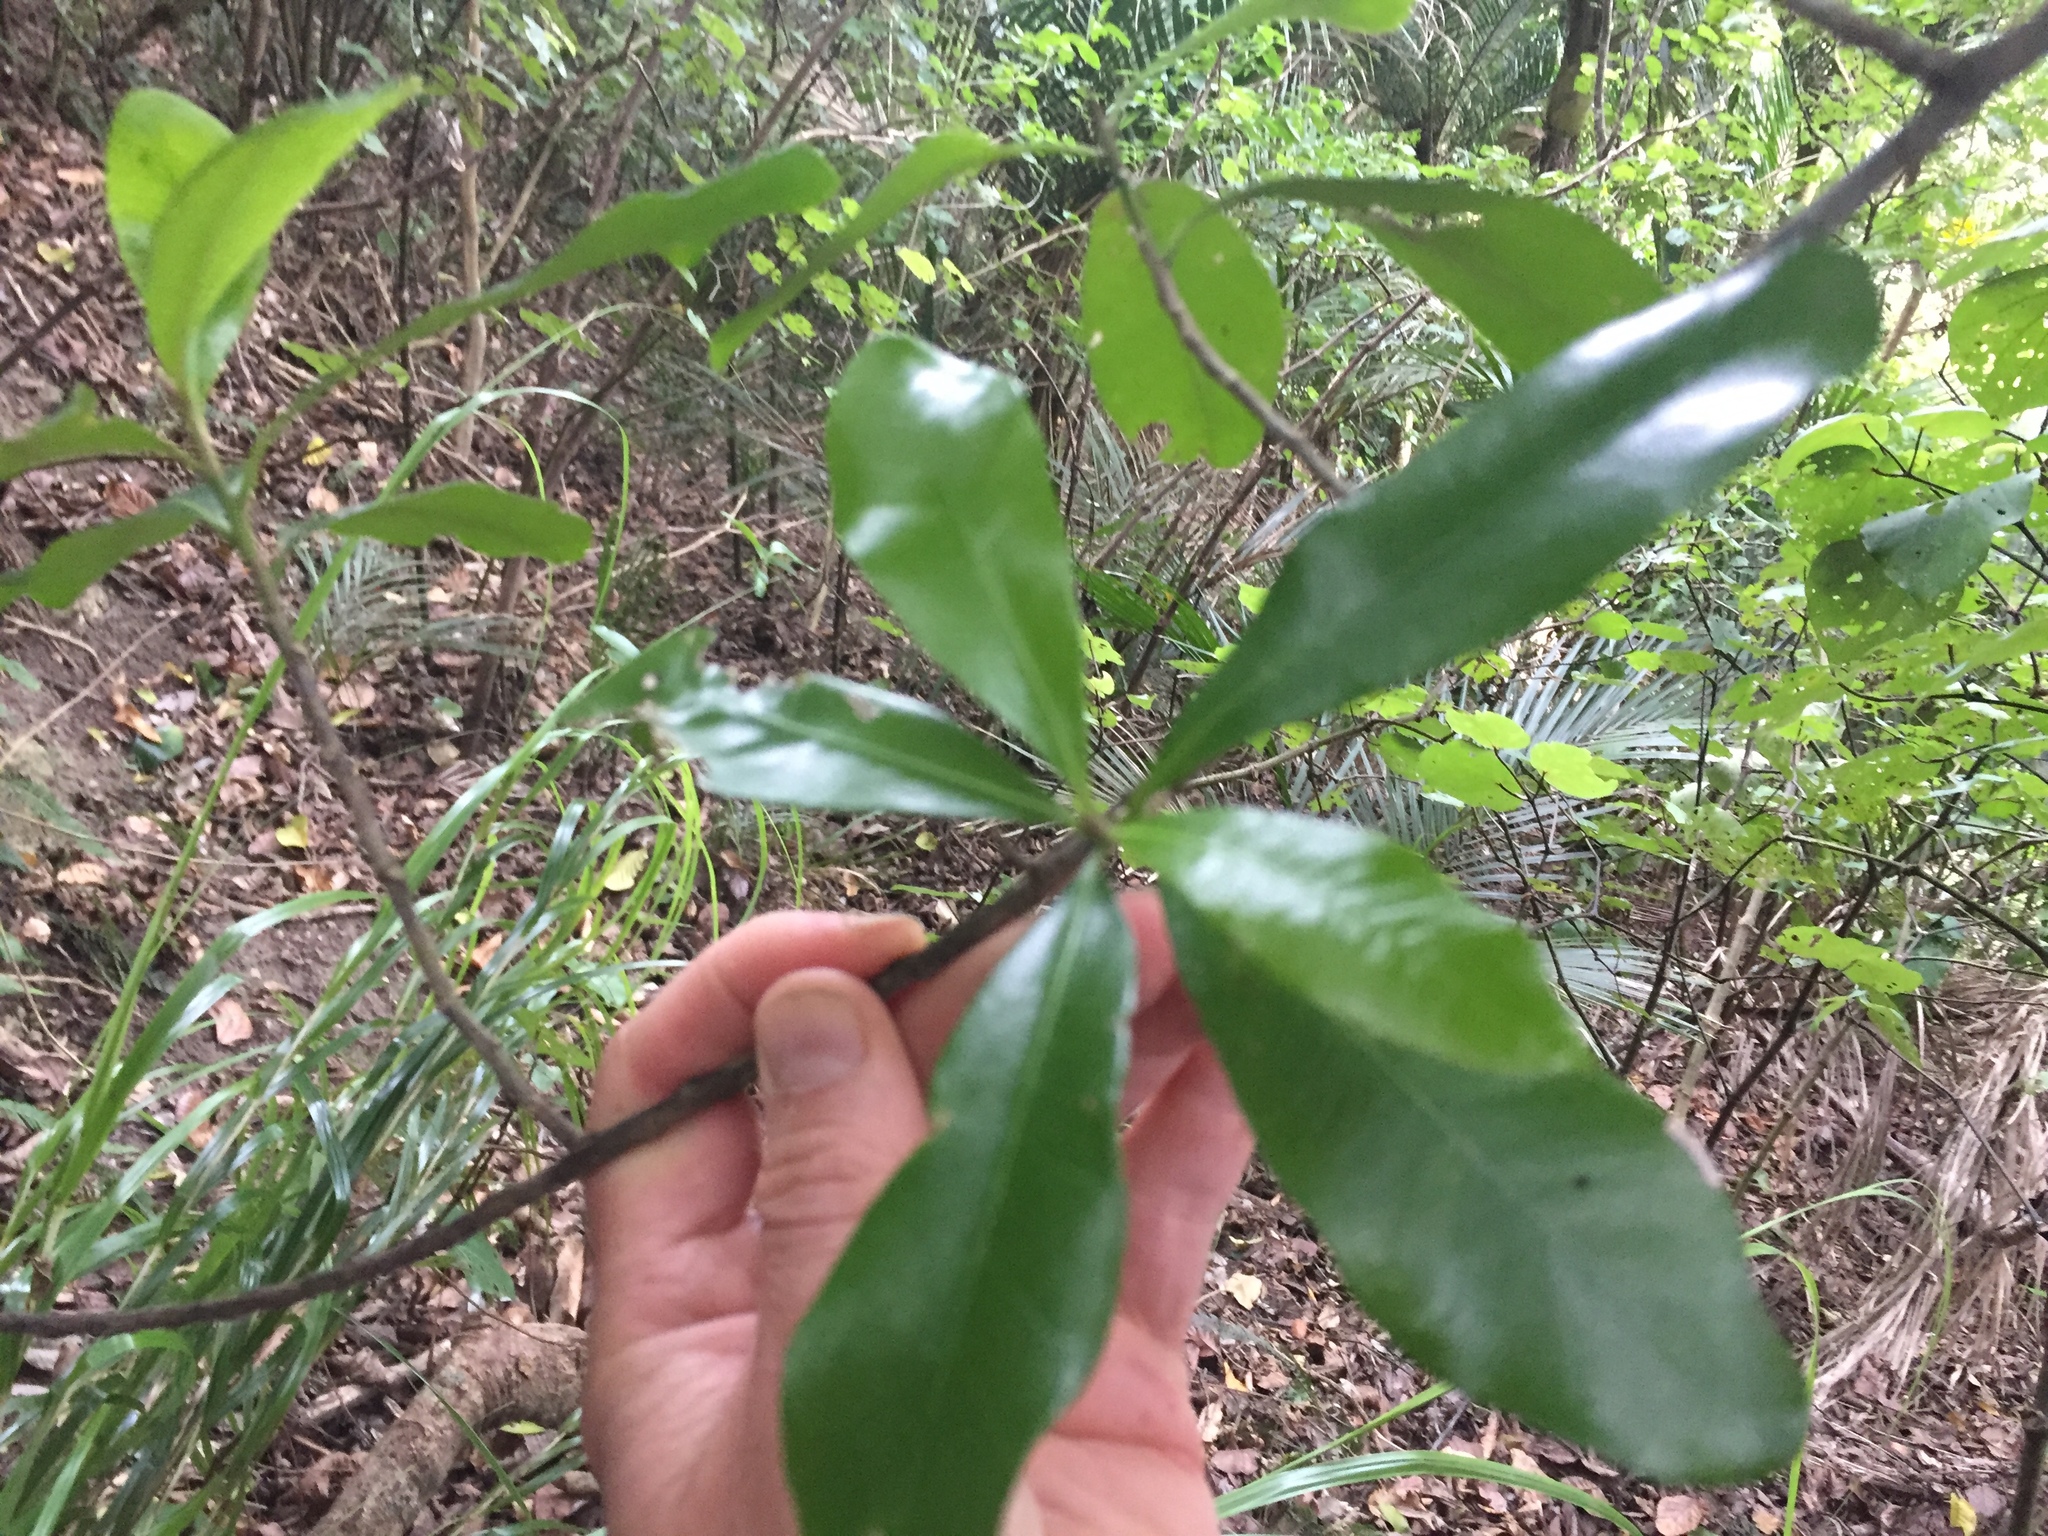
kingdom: Plantae
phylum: Tracheophyta
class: Magnoliopsida
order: Ericales
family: Sapotaceae
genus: Planchonella
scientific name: Planchonella costata
